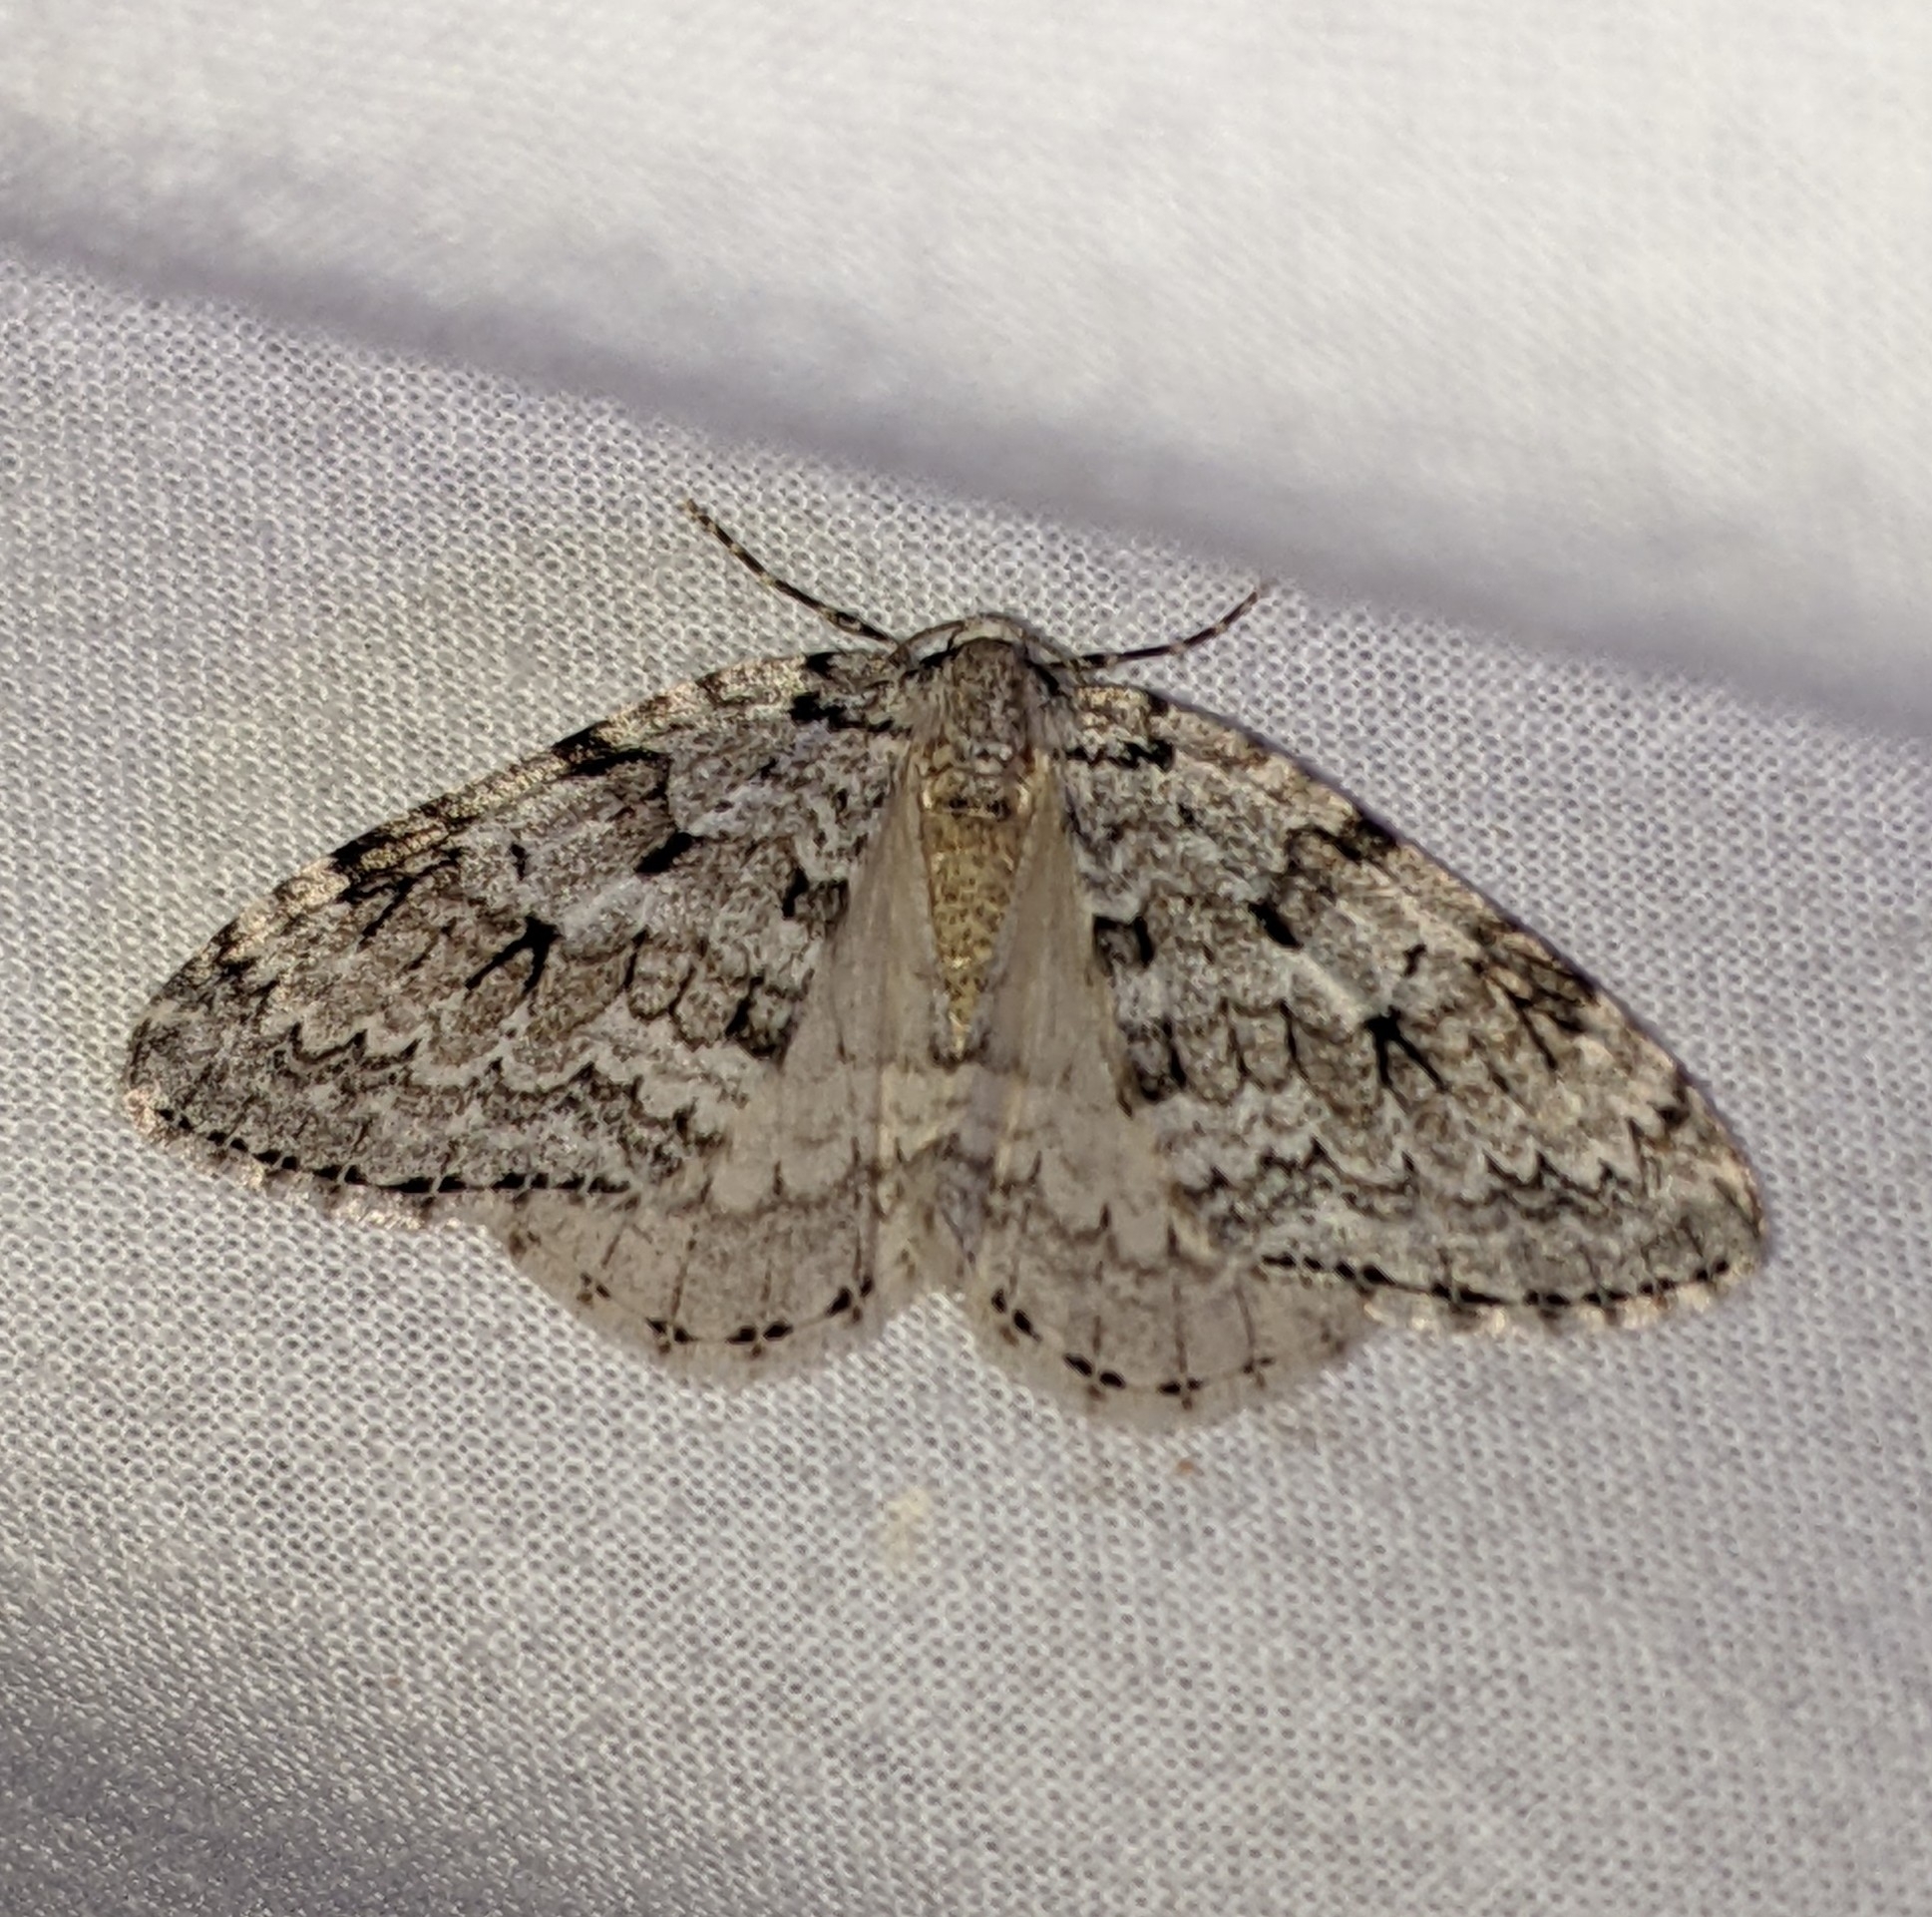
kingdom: Animalia
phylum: Arthropoda
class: Insecta
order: Lepidoptera
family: Geometridae
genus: Epirrita
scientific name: Epirrita autumnata
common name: Autumnal moth
